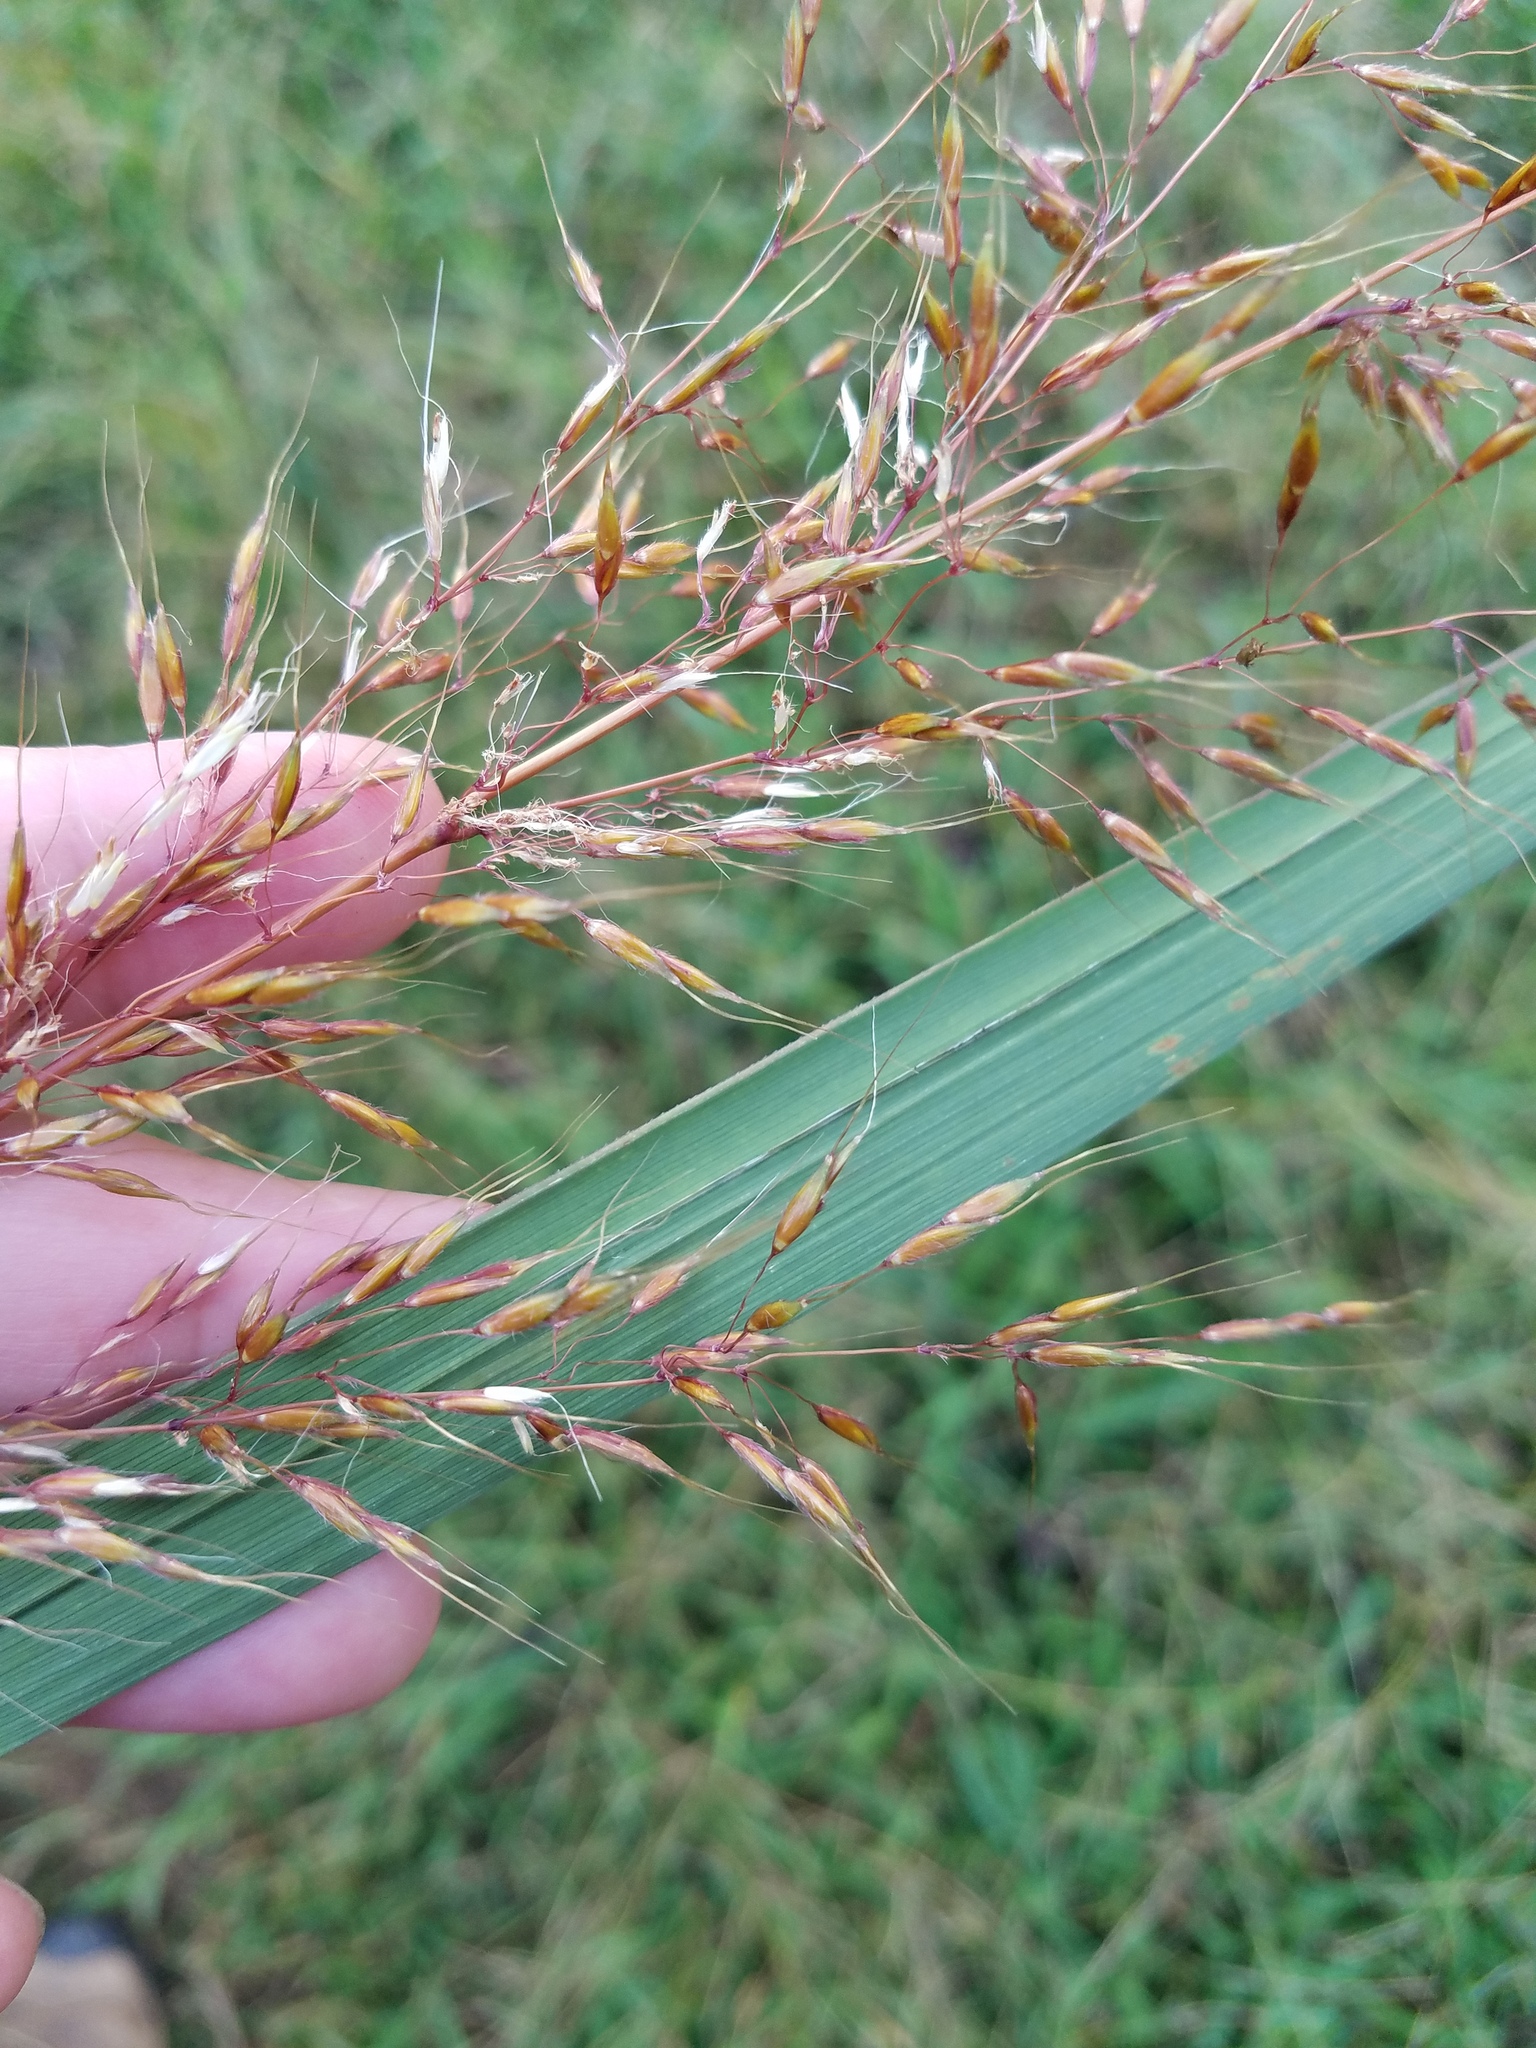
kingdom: Plantae
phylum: Tracheophyta
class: Liliopsida
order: Poales
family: Poaceae
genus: Sorghastrum
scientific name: Sorghastrum nutans
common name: Indian grass
